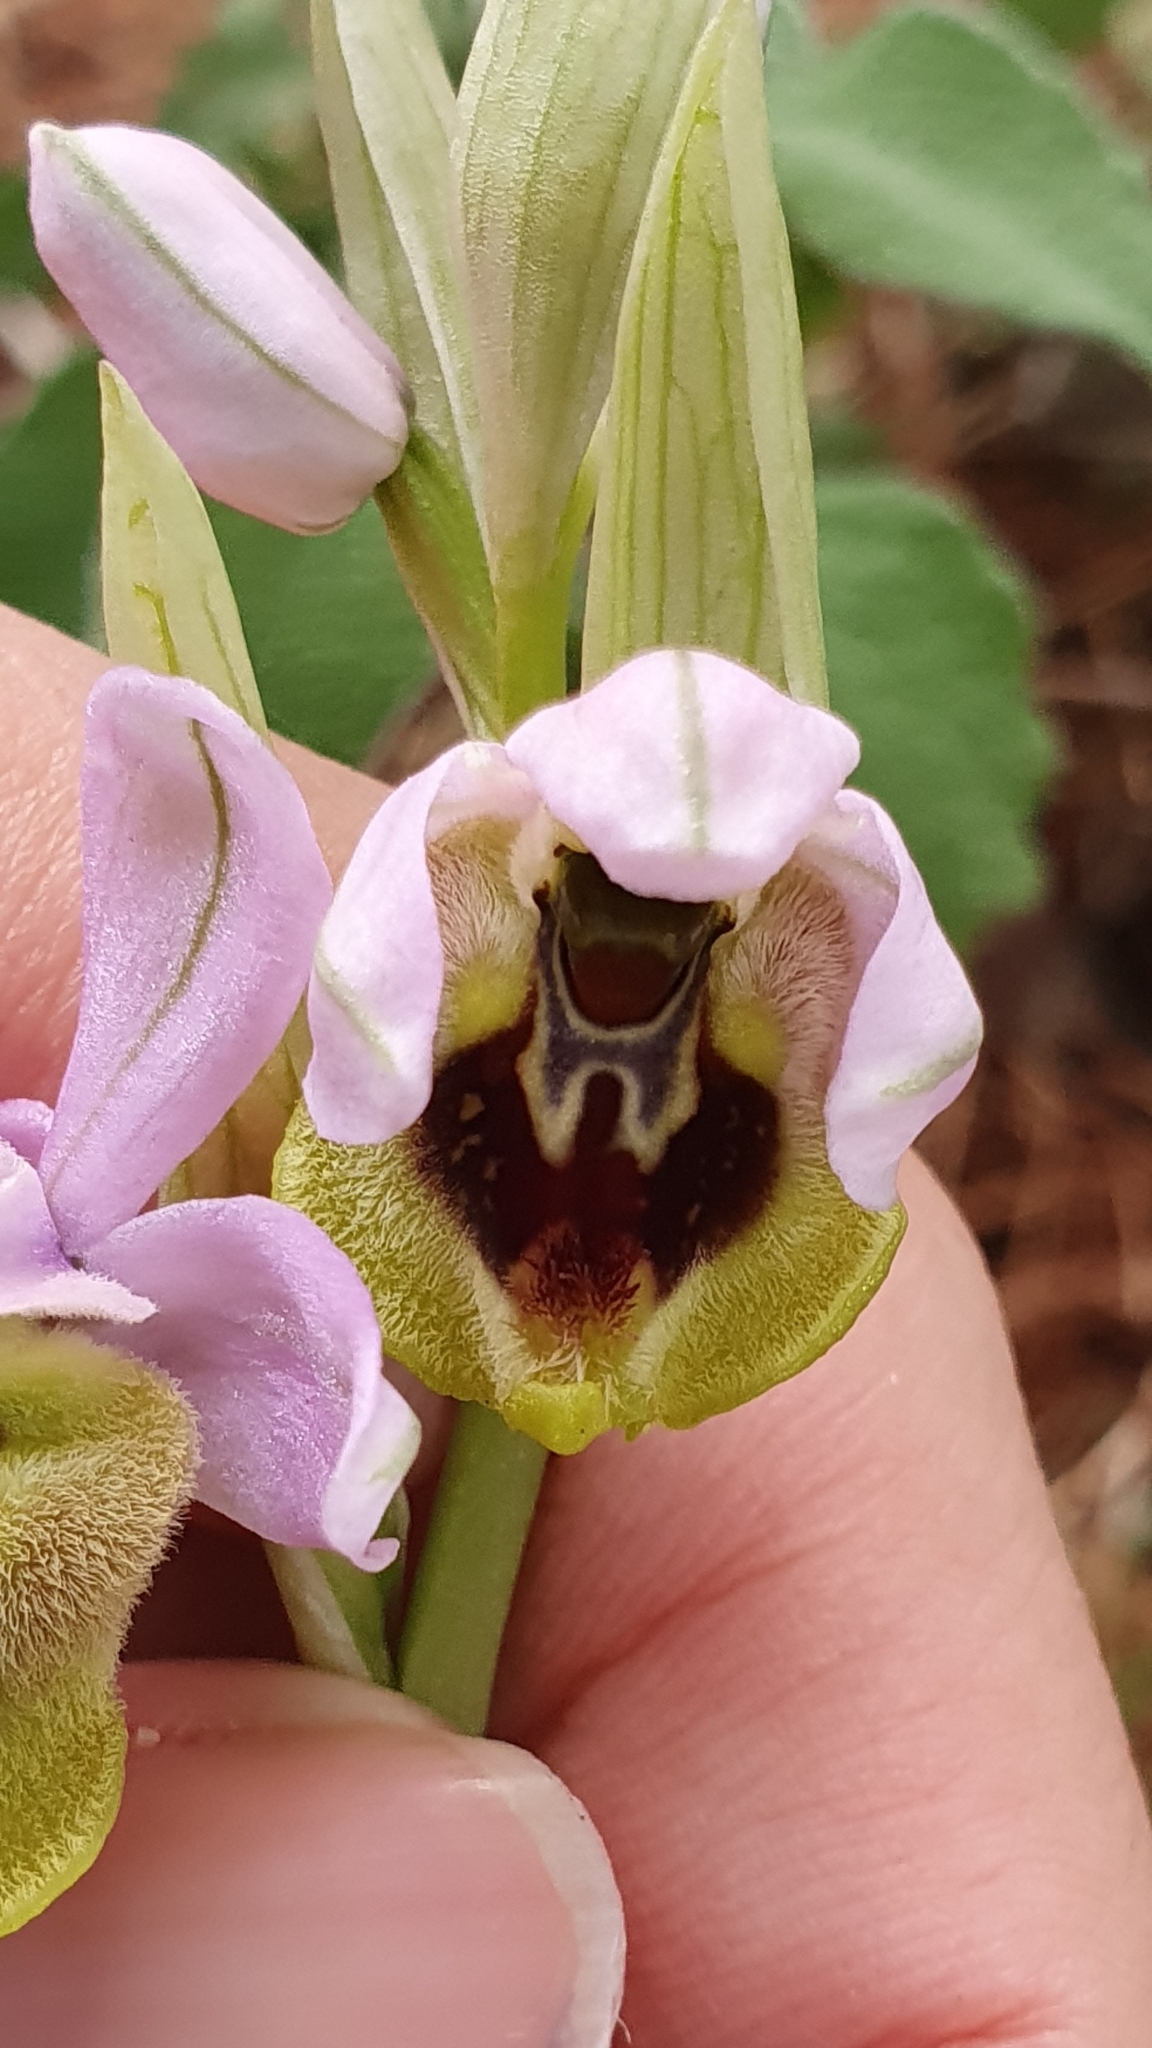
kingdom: Plantae
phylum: Tracheophyta
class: Liliopsida
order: Asparagales
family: Orchidaceae
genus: Ophrys
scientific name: Ophrys tenthredinifera
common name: Sawfly orchid
